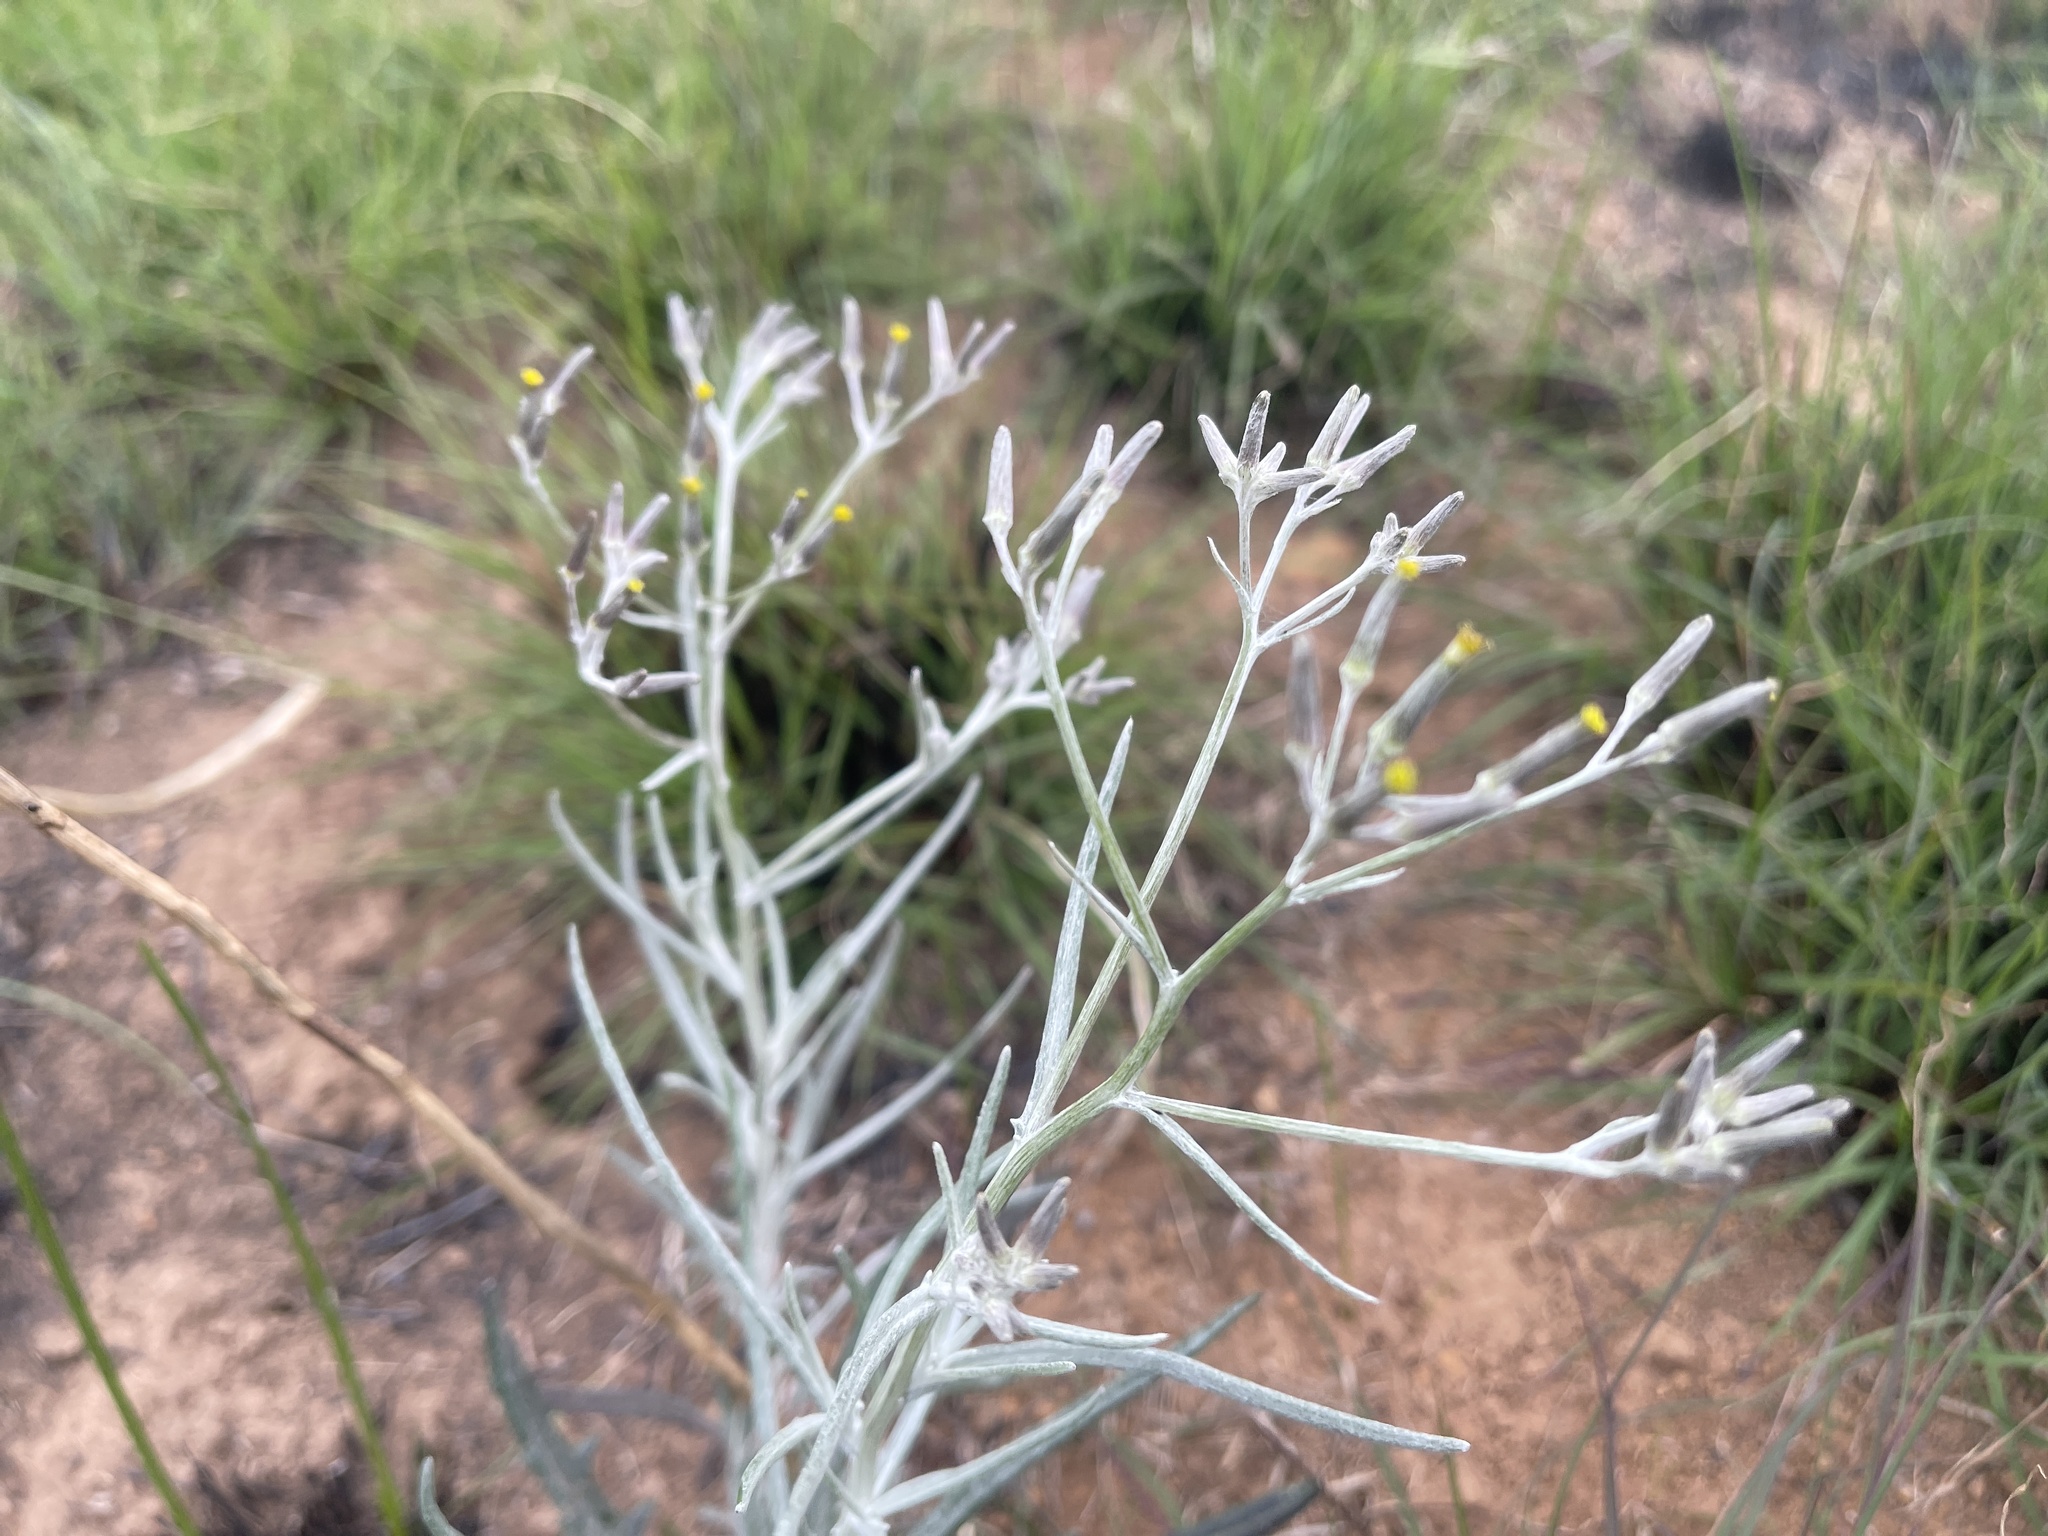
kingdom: Plantae
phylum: Tracheophyta
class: Magnoliopsida
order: Asterales
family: Asteraceae
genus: Senecio
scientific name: Senecio quadridentatus
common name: Cotton fireweed
